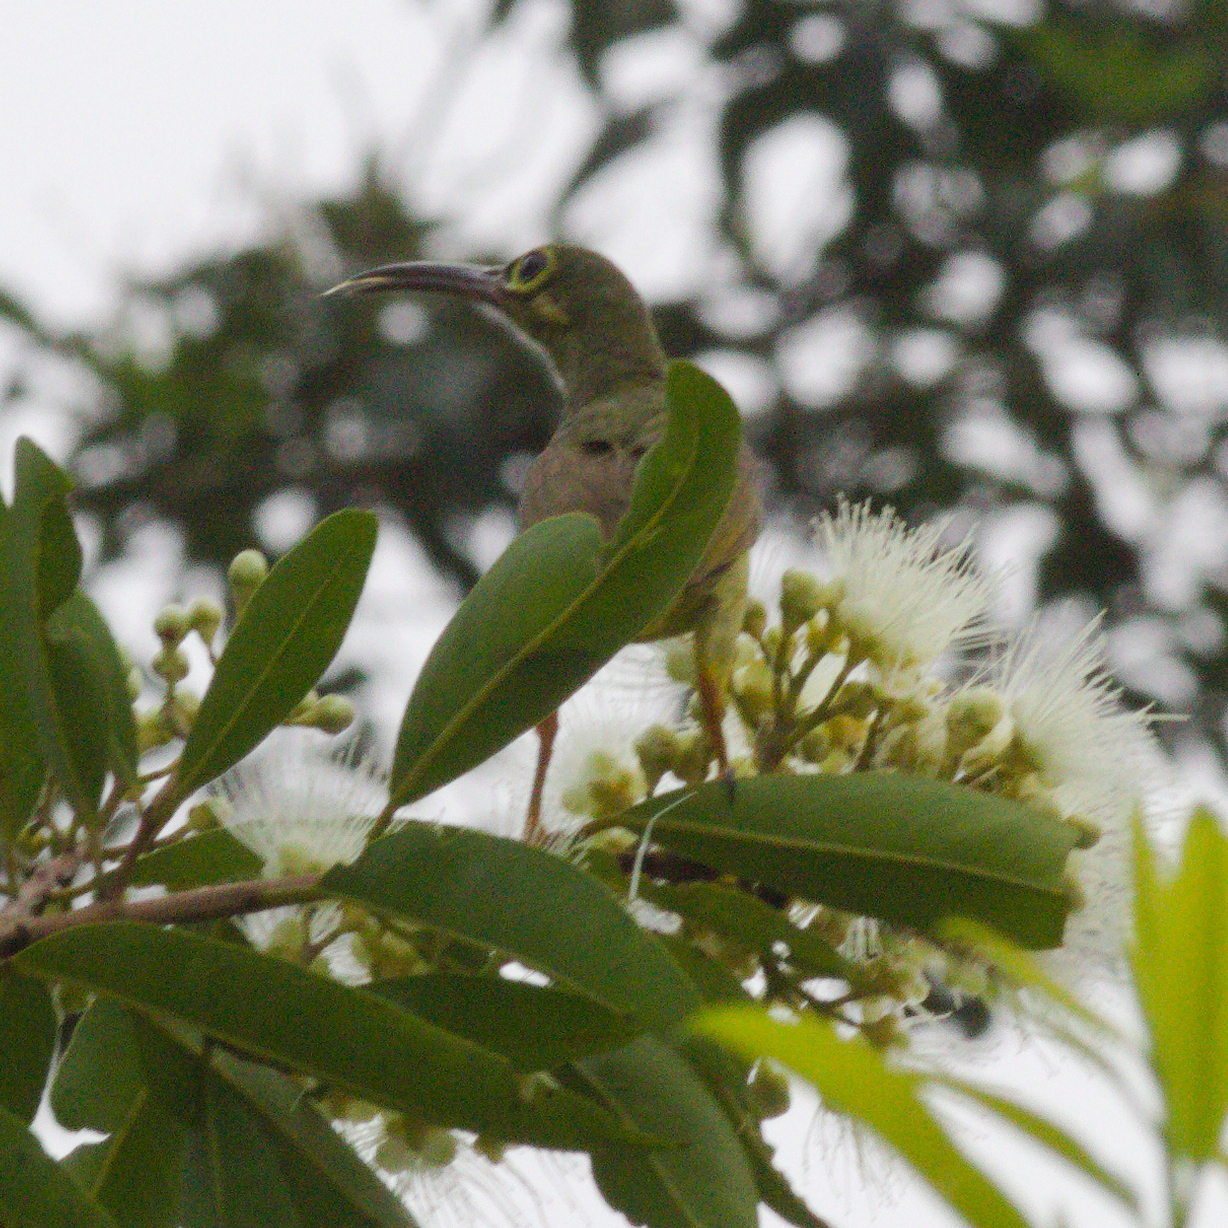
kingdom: Animalia
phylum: Chordata
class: Aves
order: Passeriformes
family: Nectariniidae
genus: Arachnothera
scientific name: Arachnothera flavigaster
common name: Spectacled spiderhunter
